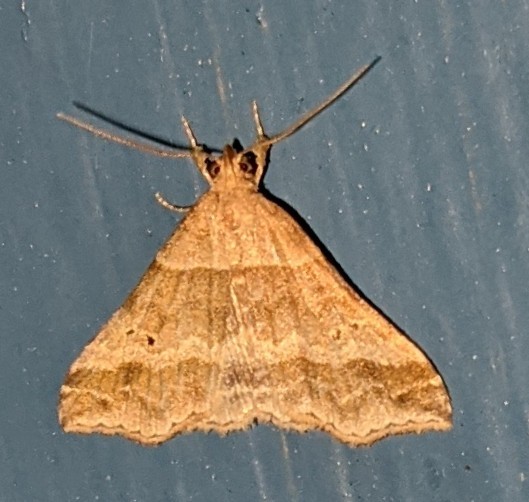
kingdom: Animalia
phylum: Arthropoda
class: Insecta
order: Lepidoptera
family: Erebidae
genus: Phaeolita
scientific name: Phaeolita pyramusalis
